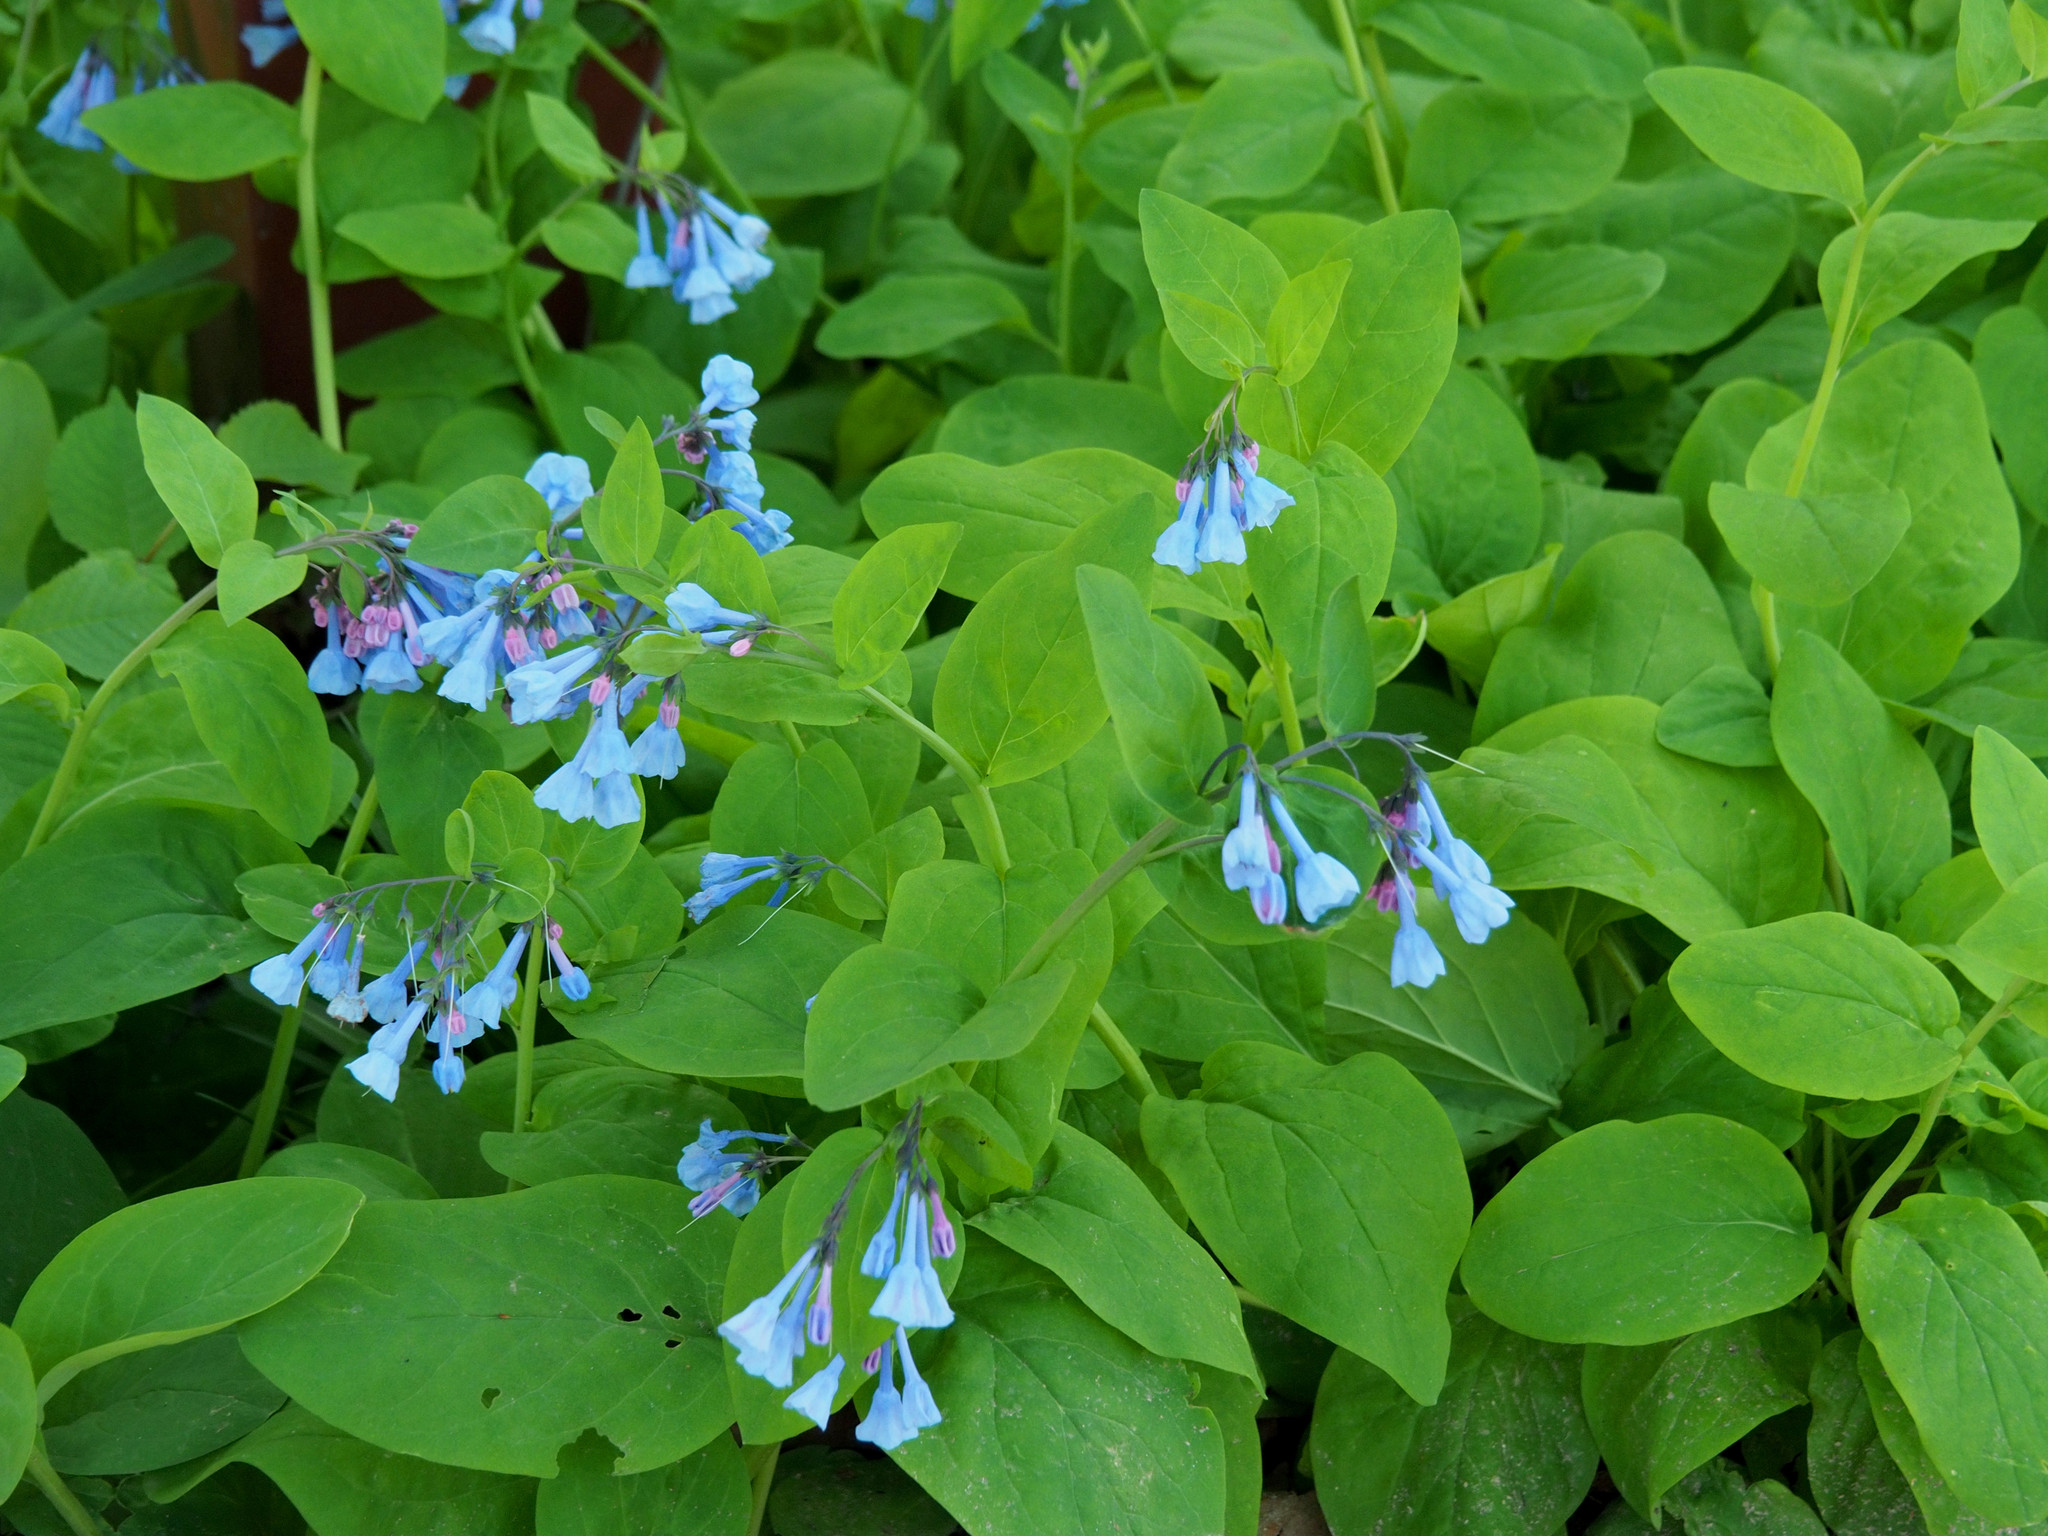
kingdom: Plantae
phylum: Tracheophyta
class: Magnoliopsida
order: Boraginales
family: Boraginaceae
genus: Mertensia
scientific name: Mertensia virginica
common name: Virginia bluebells
